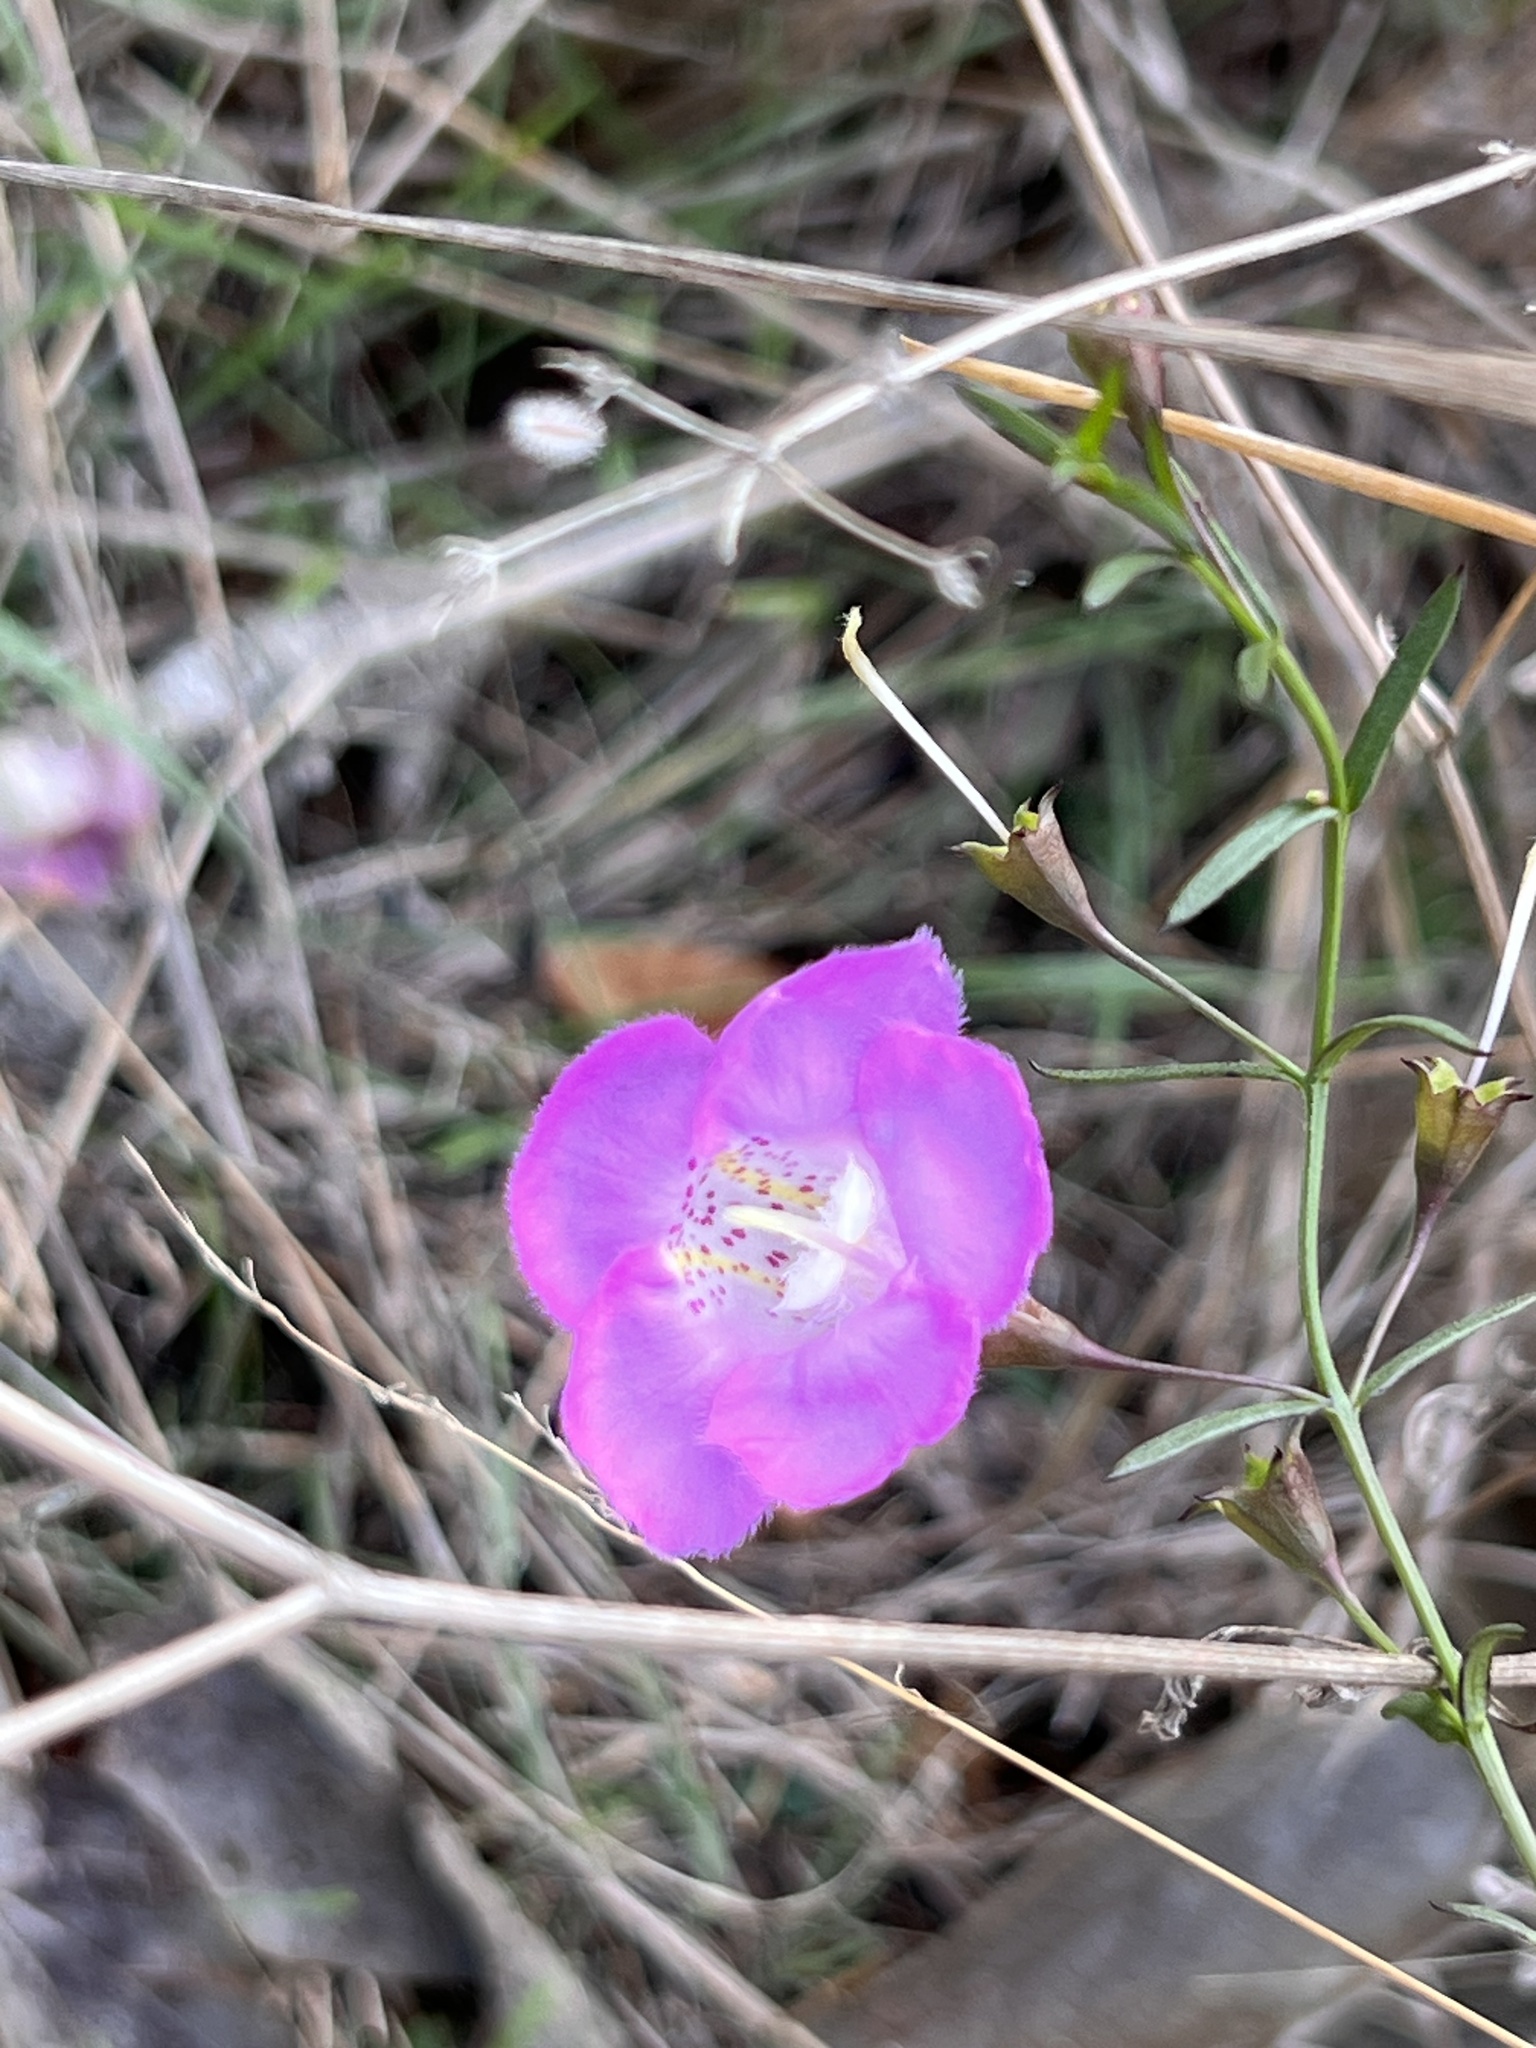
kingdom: Plantae
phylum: Tracheophyta
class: Magnoliopsida
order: Lamiales
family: Orobanchaceae
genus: Agalinis
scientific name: Agalinis strictifolia
